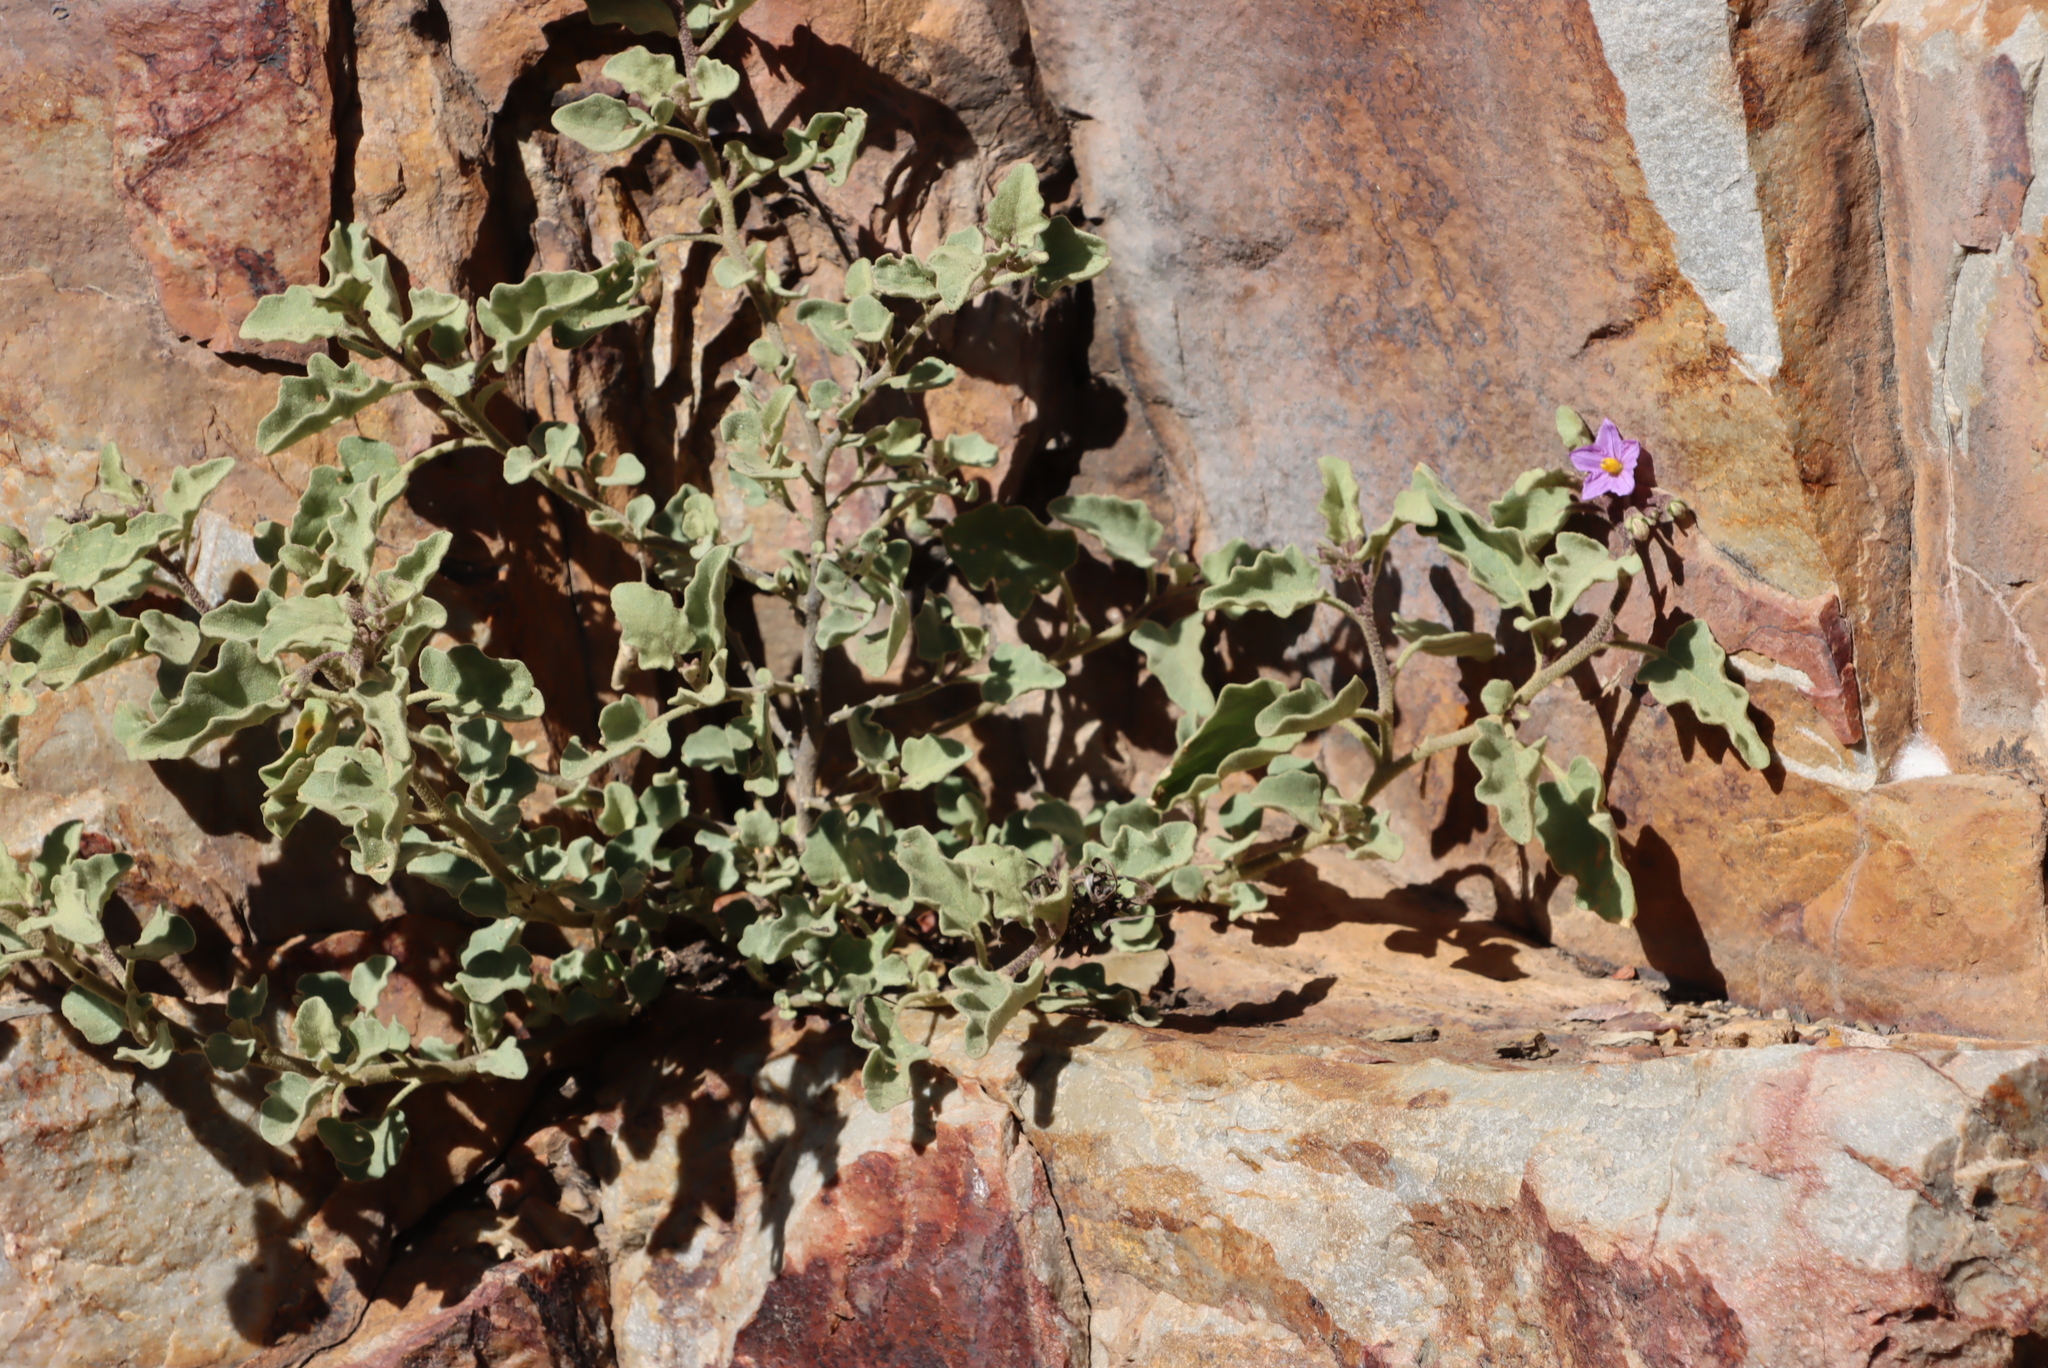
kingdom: Plantae
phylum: Tracheophyta
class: Magnoliopsida
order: Solanales
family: Solanaceae
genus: Solanum
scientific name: Solanum tomentosum
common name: Wild aubergine
